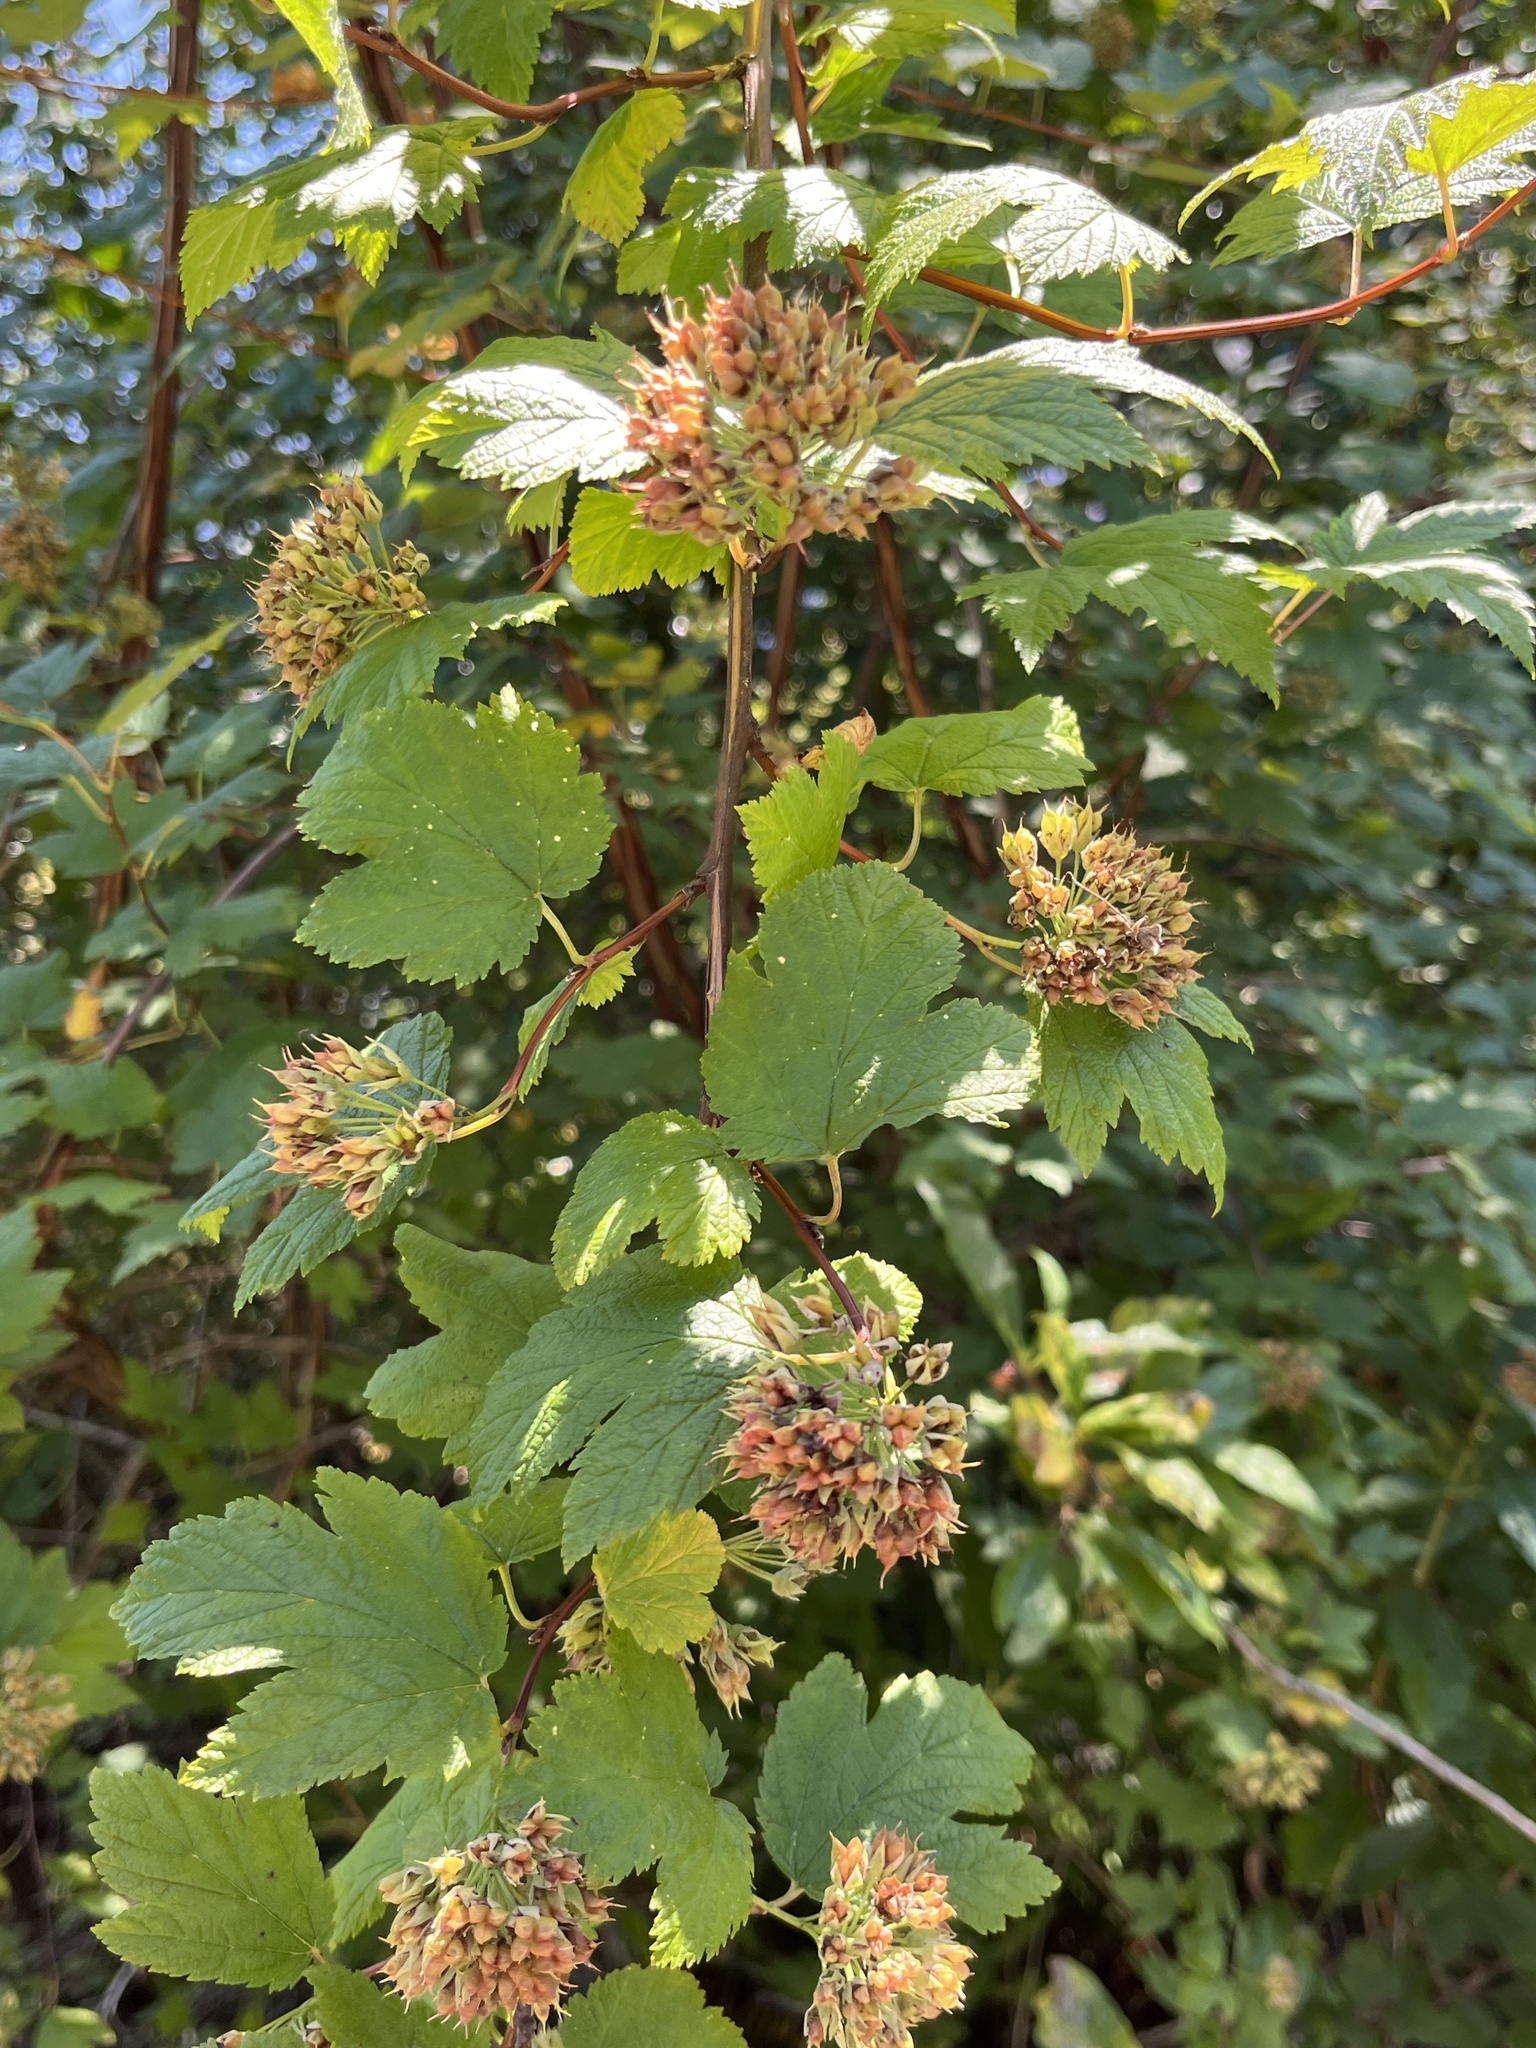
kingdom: Plantae
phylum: Tracheophyta
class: Magnoliopsida
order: Rosales
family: Rosaceae
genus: Physocarpus
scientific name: Physocarpus capitatus
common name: Pacific ninebark
